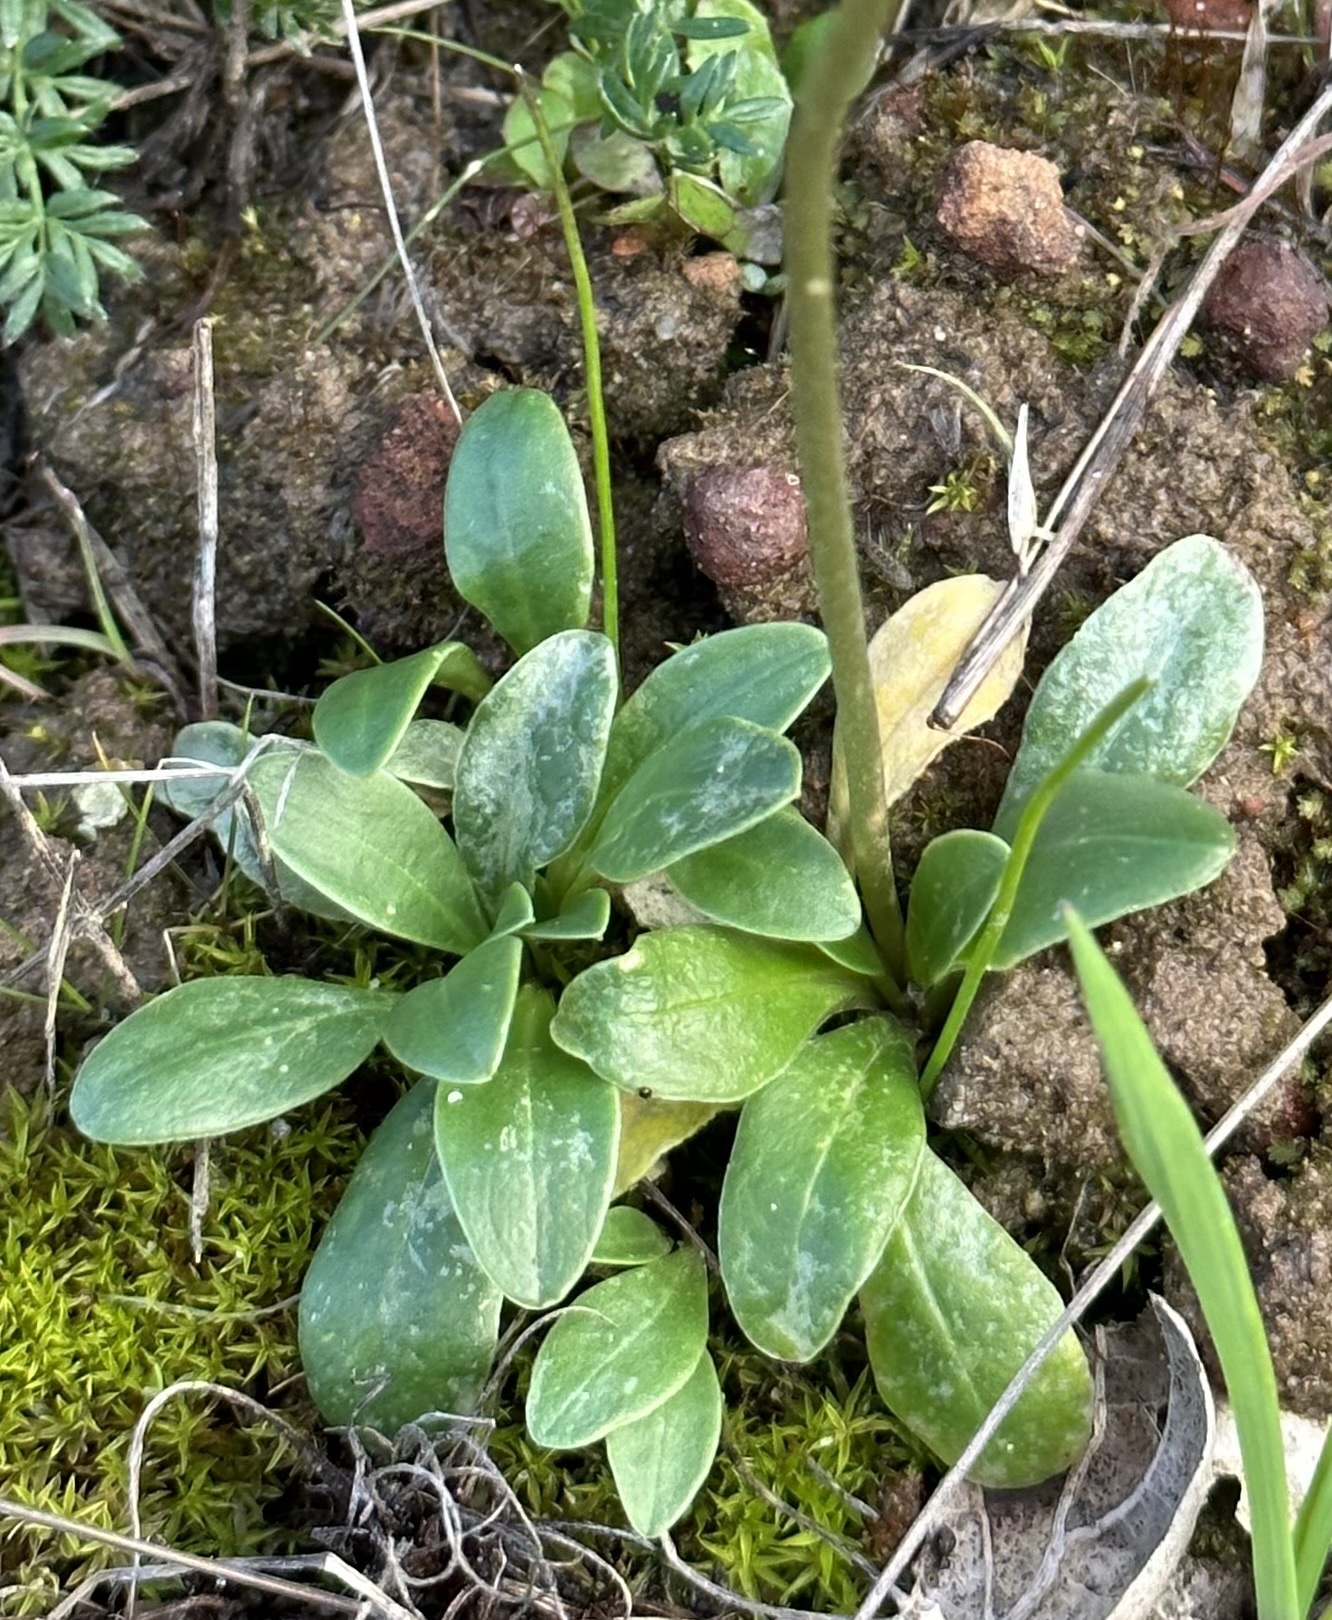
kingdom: Plantae
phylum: Tracheophyta
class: Magnoliopsida
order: Ericales
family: Primulaceae
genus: Dodecatheon
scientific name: Dodecatheon clevelandii
